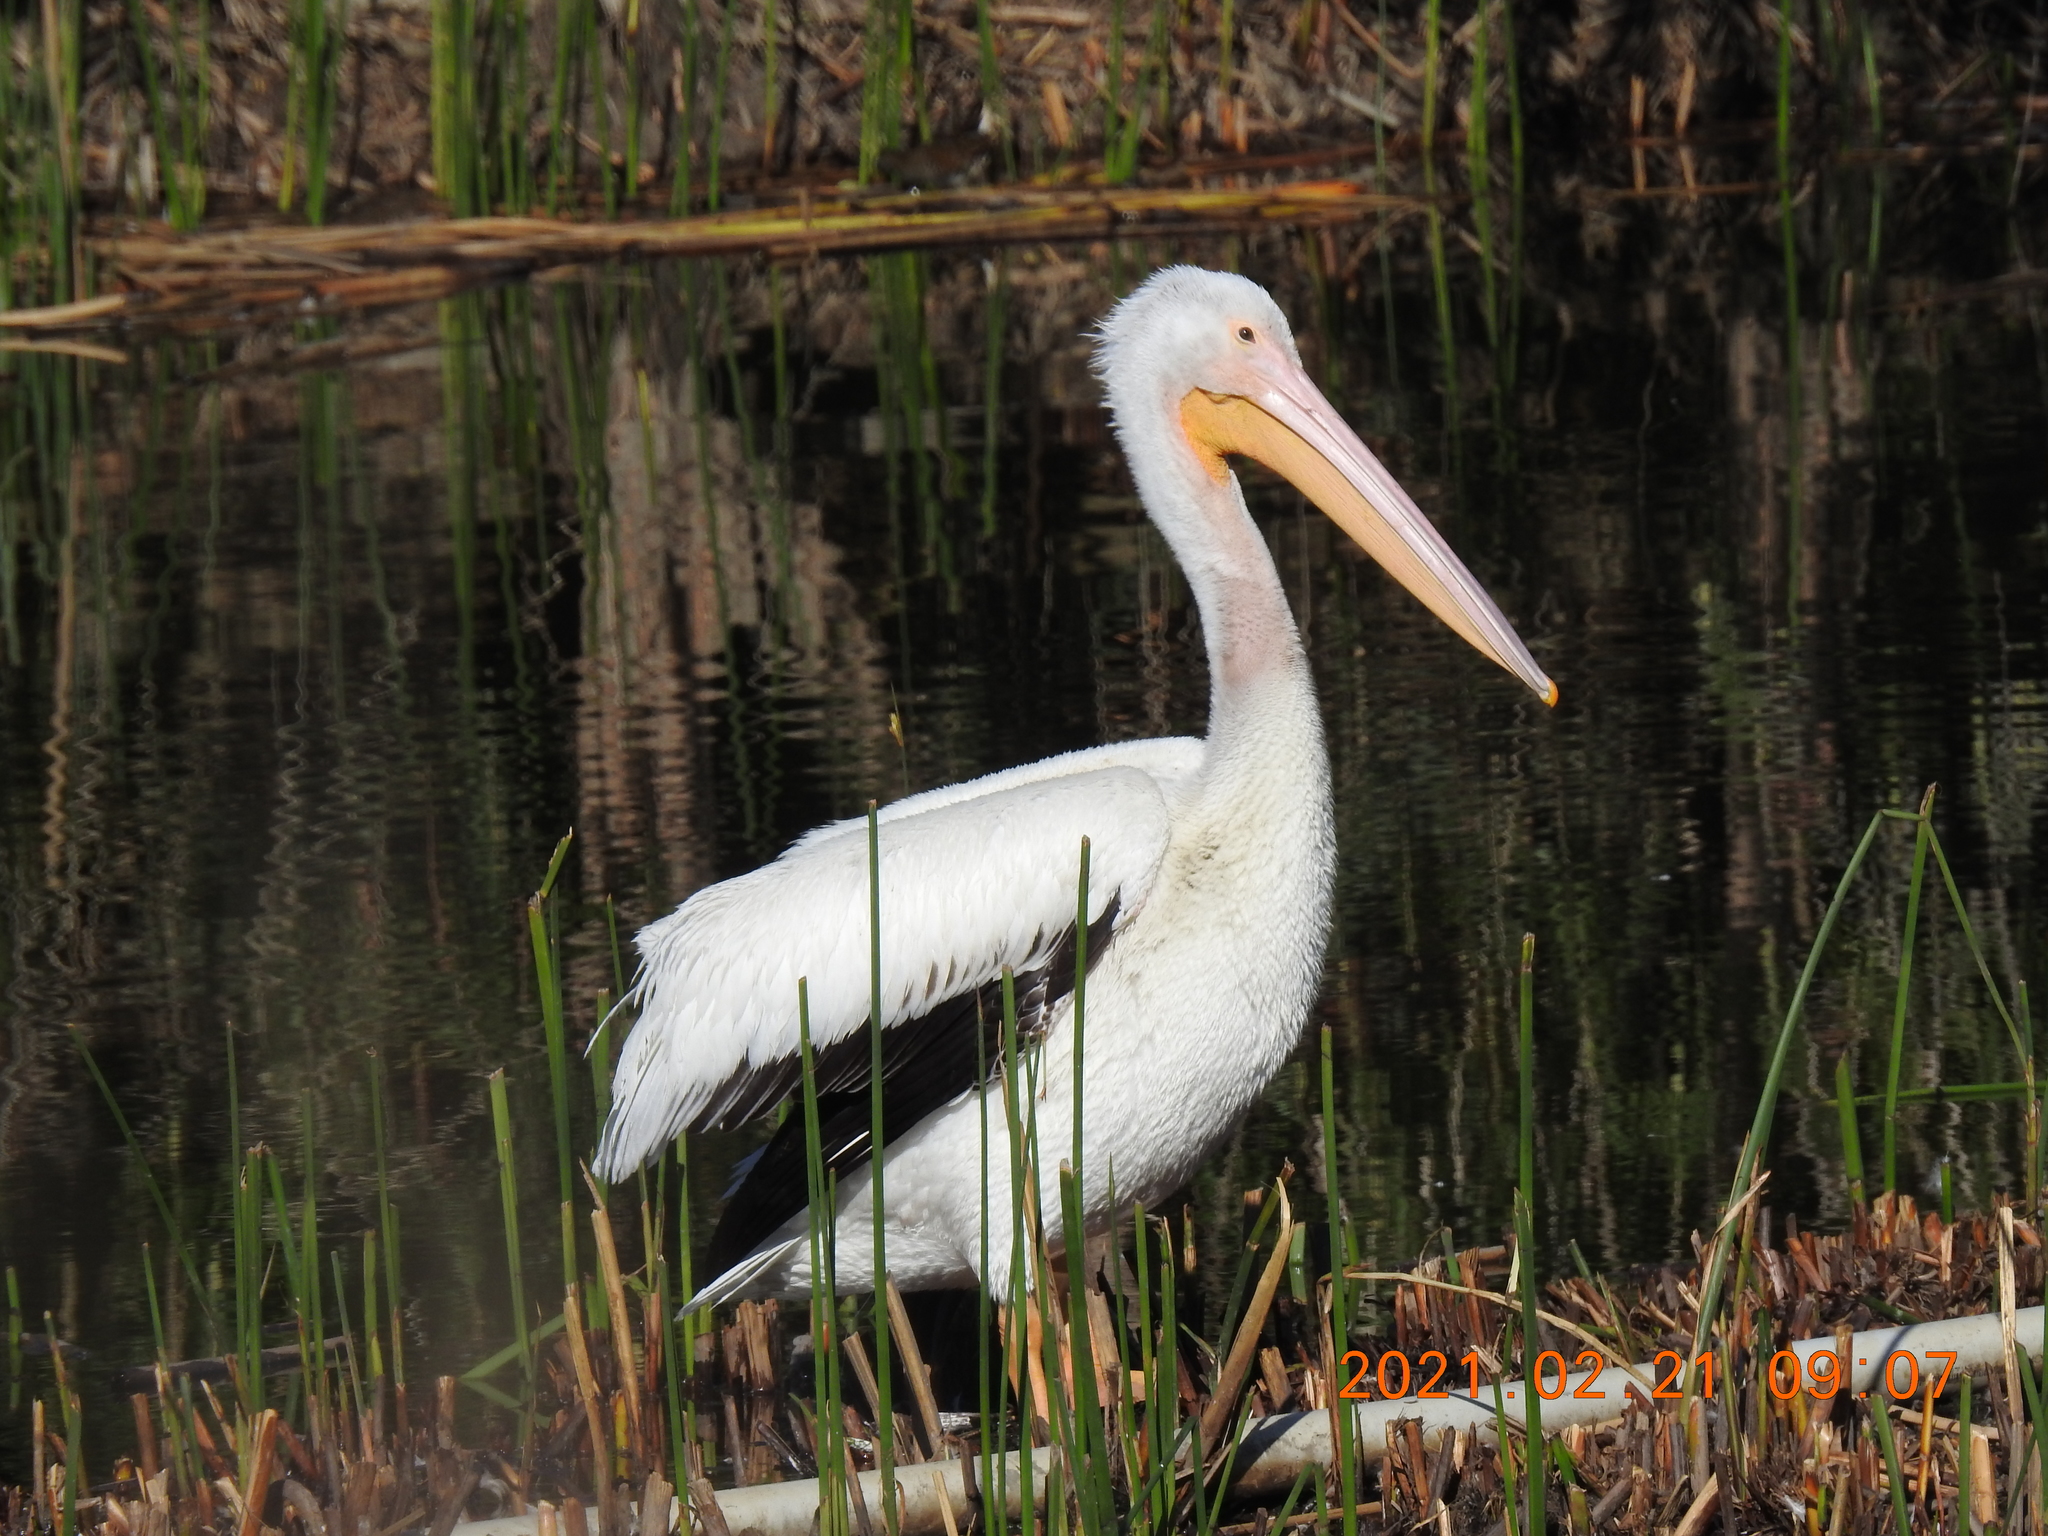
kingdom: Animalia
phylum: Chordata
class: Aves
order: Pelecaniformes
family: Pelecanidae
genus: Pelecanus
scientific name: Pelecanus erythrorhynchos
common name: American white pelican
